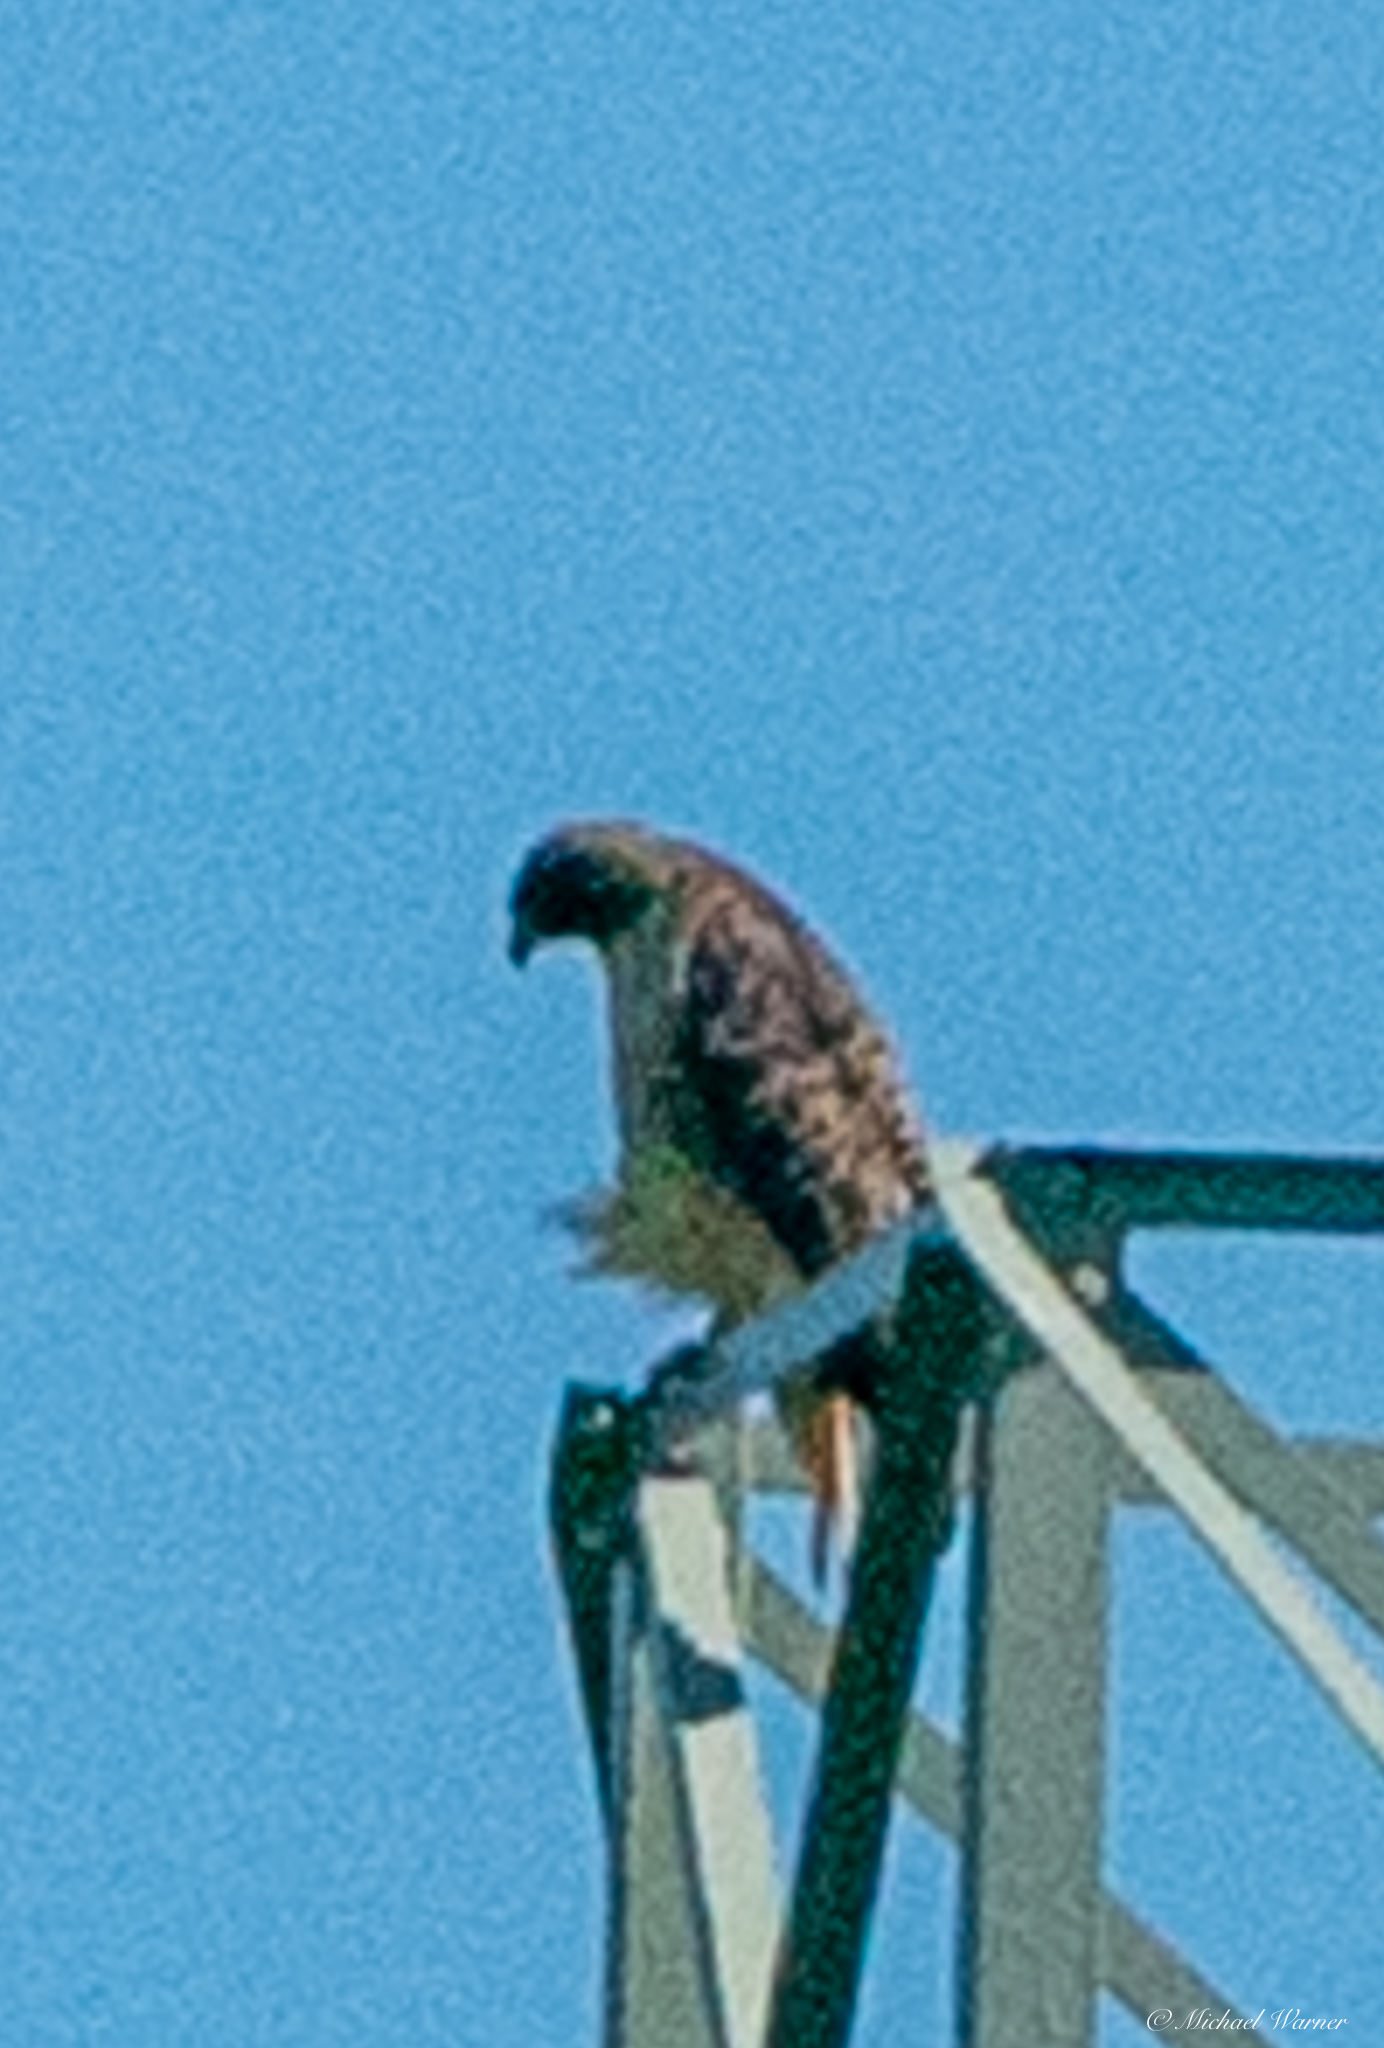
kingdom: Animalia
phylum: Chordata
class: Aves
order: Accipitriformes
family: Accipitridae
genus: Buteo
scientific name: Buteo jamaicensis
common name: Red-tailed hawk
